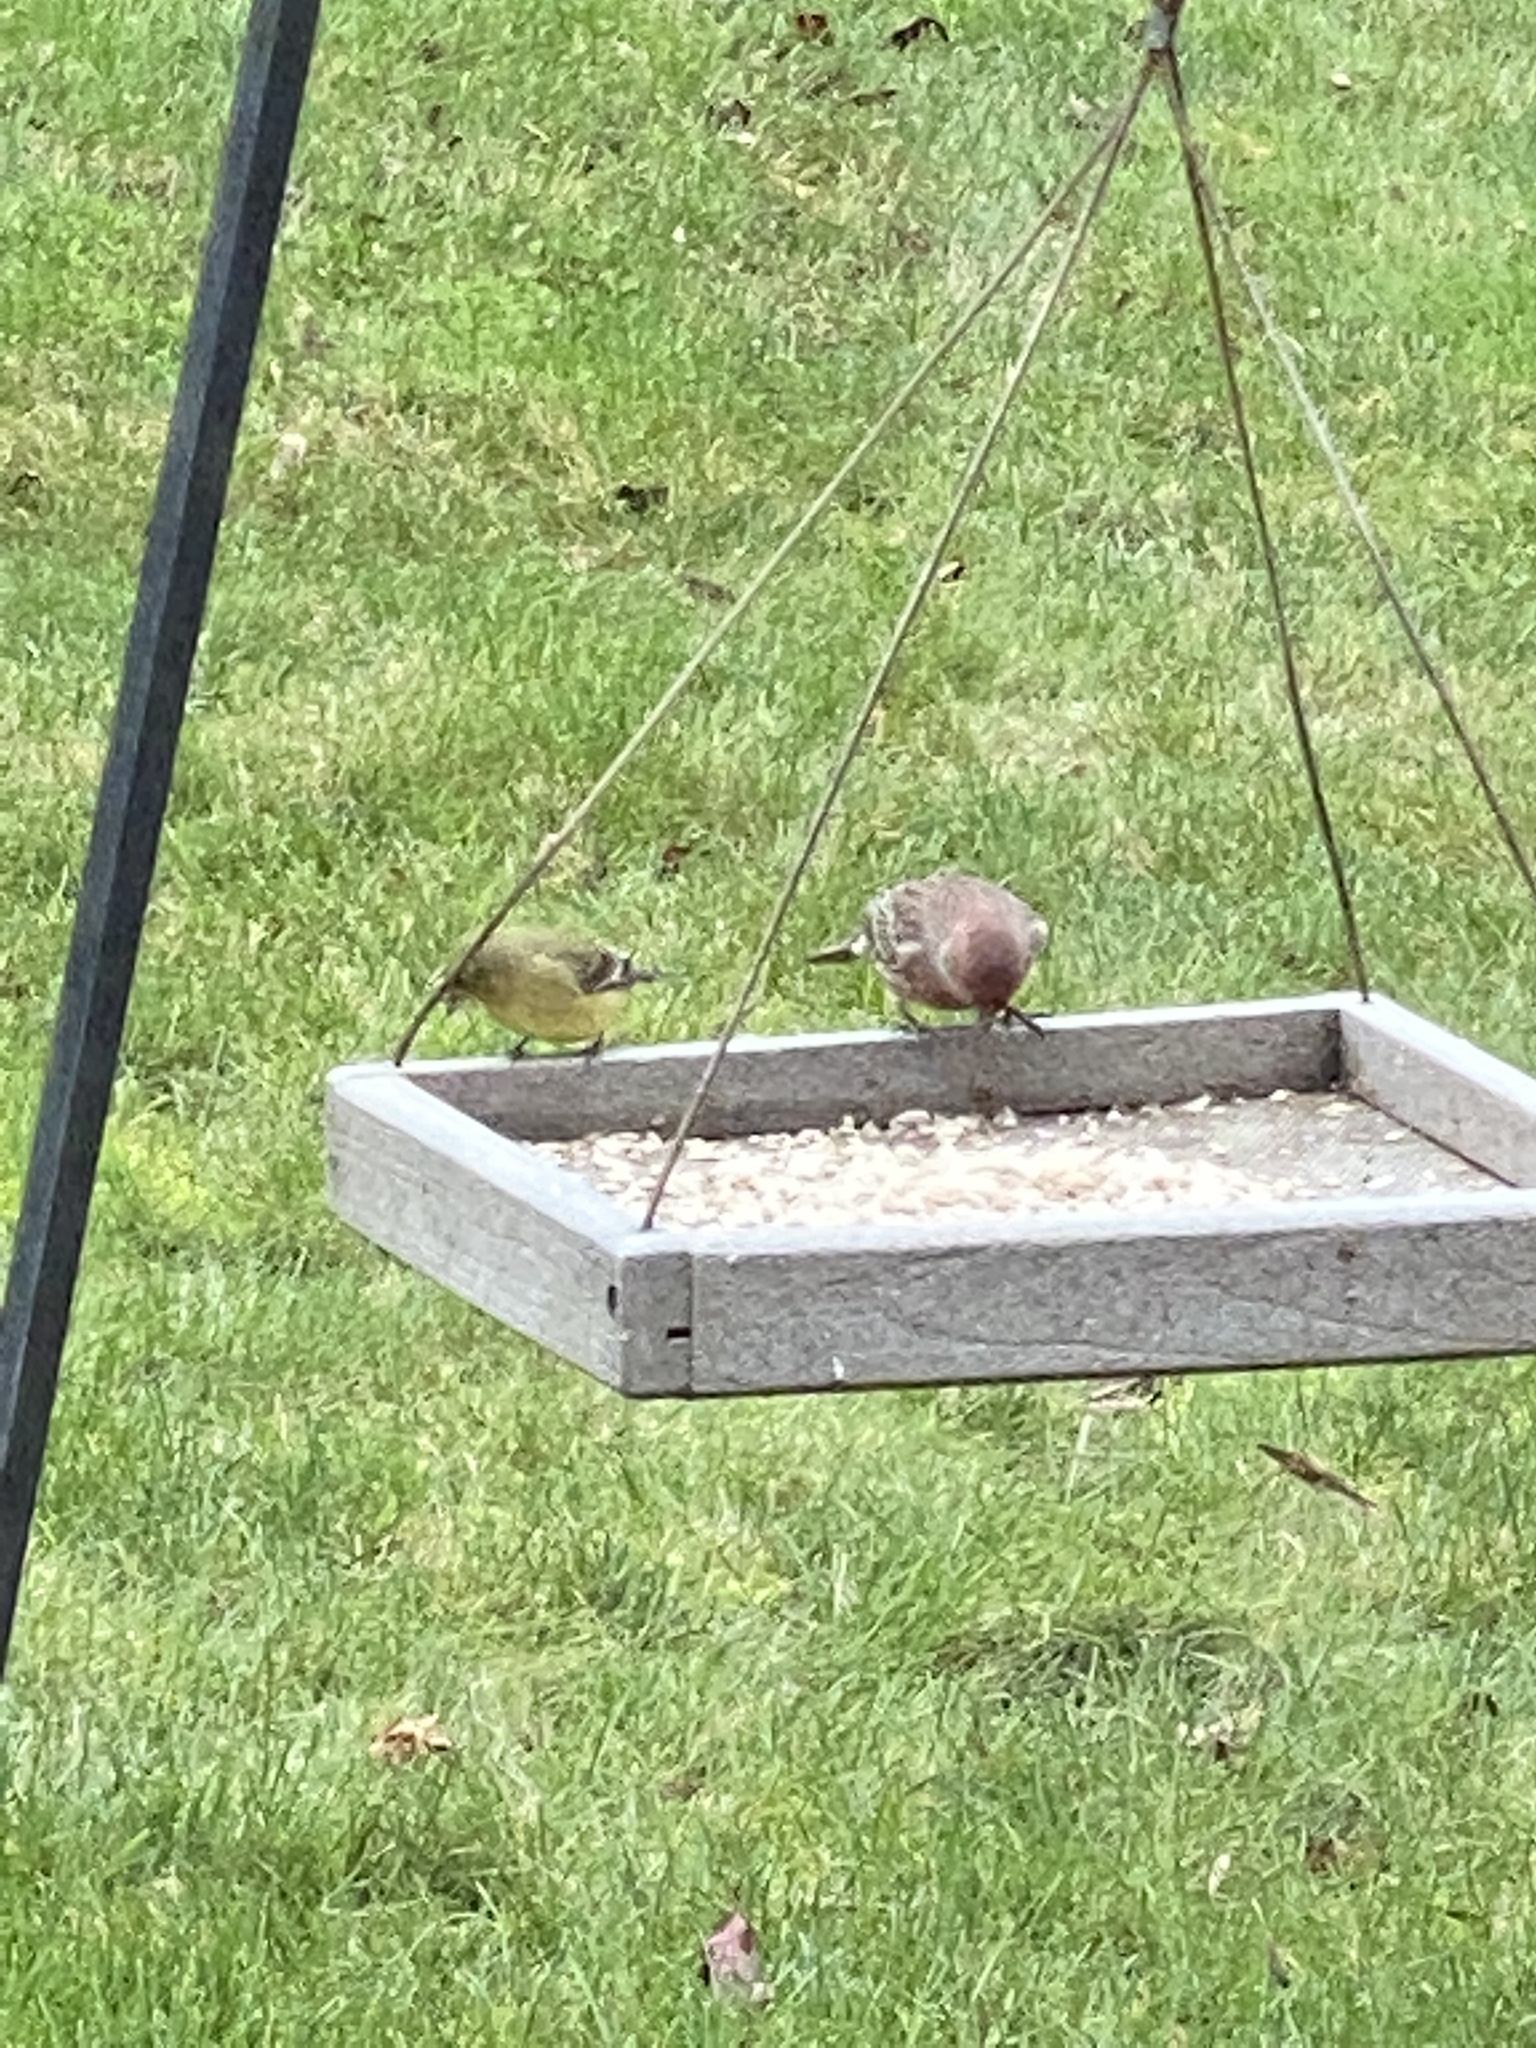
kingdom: Animalia
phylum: Chordata
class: Aves
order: Passeriformes
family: Fringillidae
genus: Haemorhous
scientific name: Haemorhous mexicanus
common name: House finch
